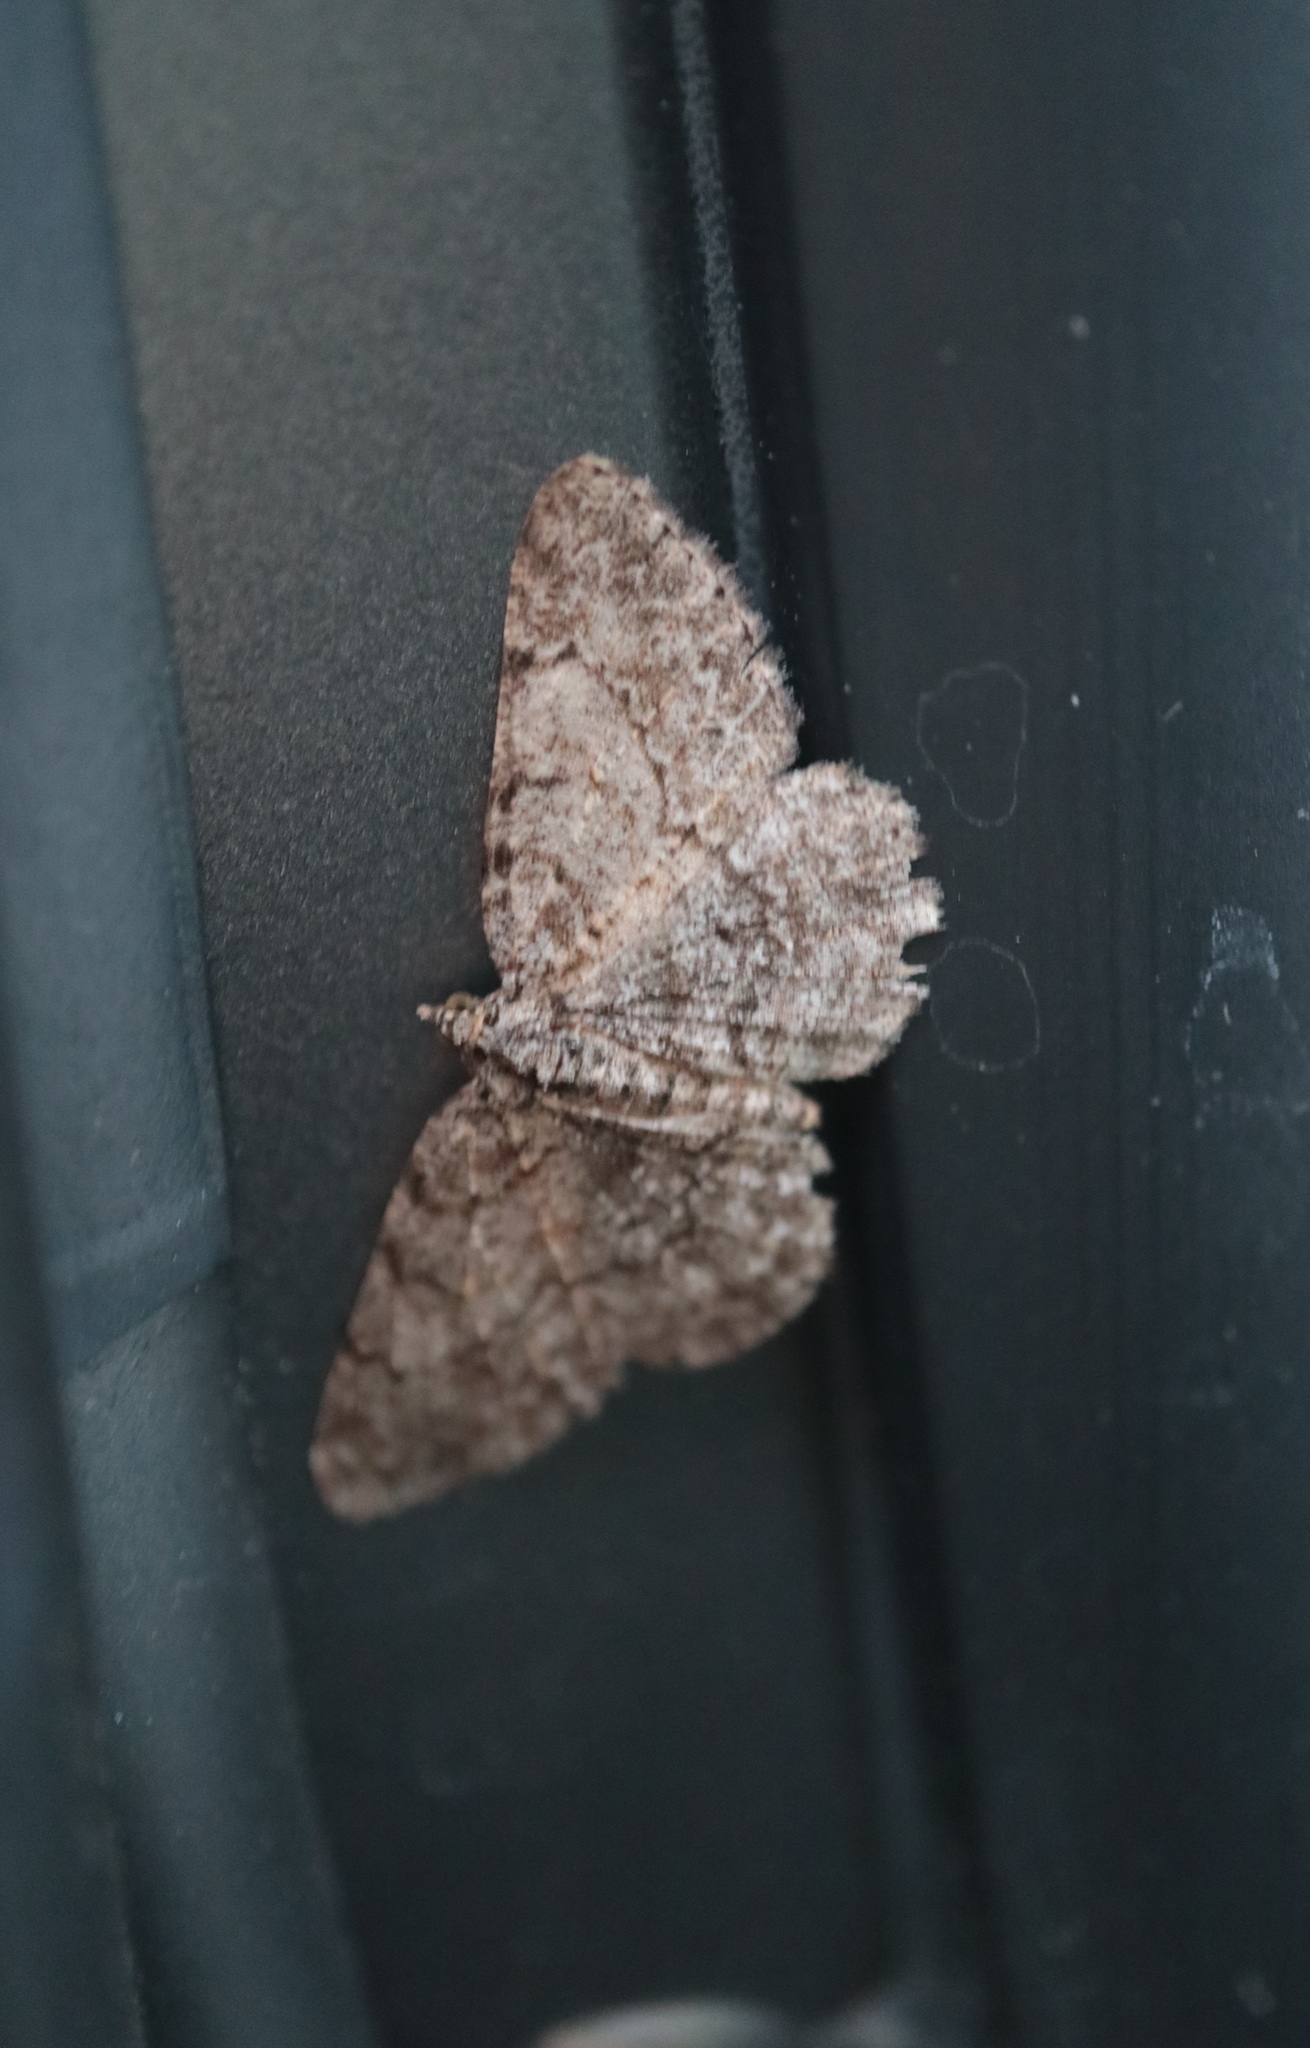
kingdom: Animalia
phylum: Arthropoda
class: Insecta
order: Lepidoptera
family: Geometridae
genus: Protoboarmia
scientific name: Protoboarmia porcelaria
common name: Porcelain gray
